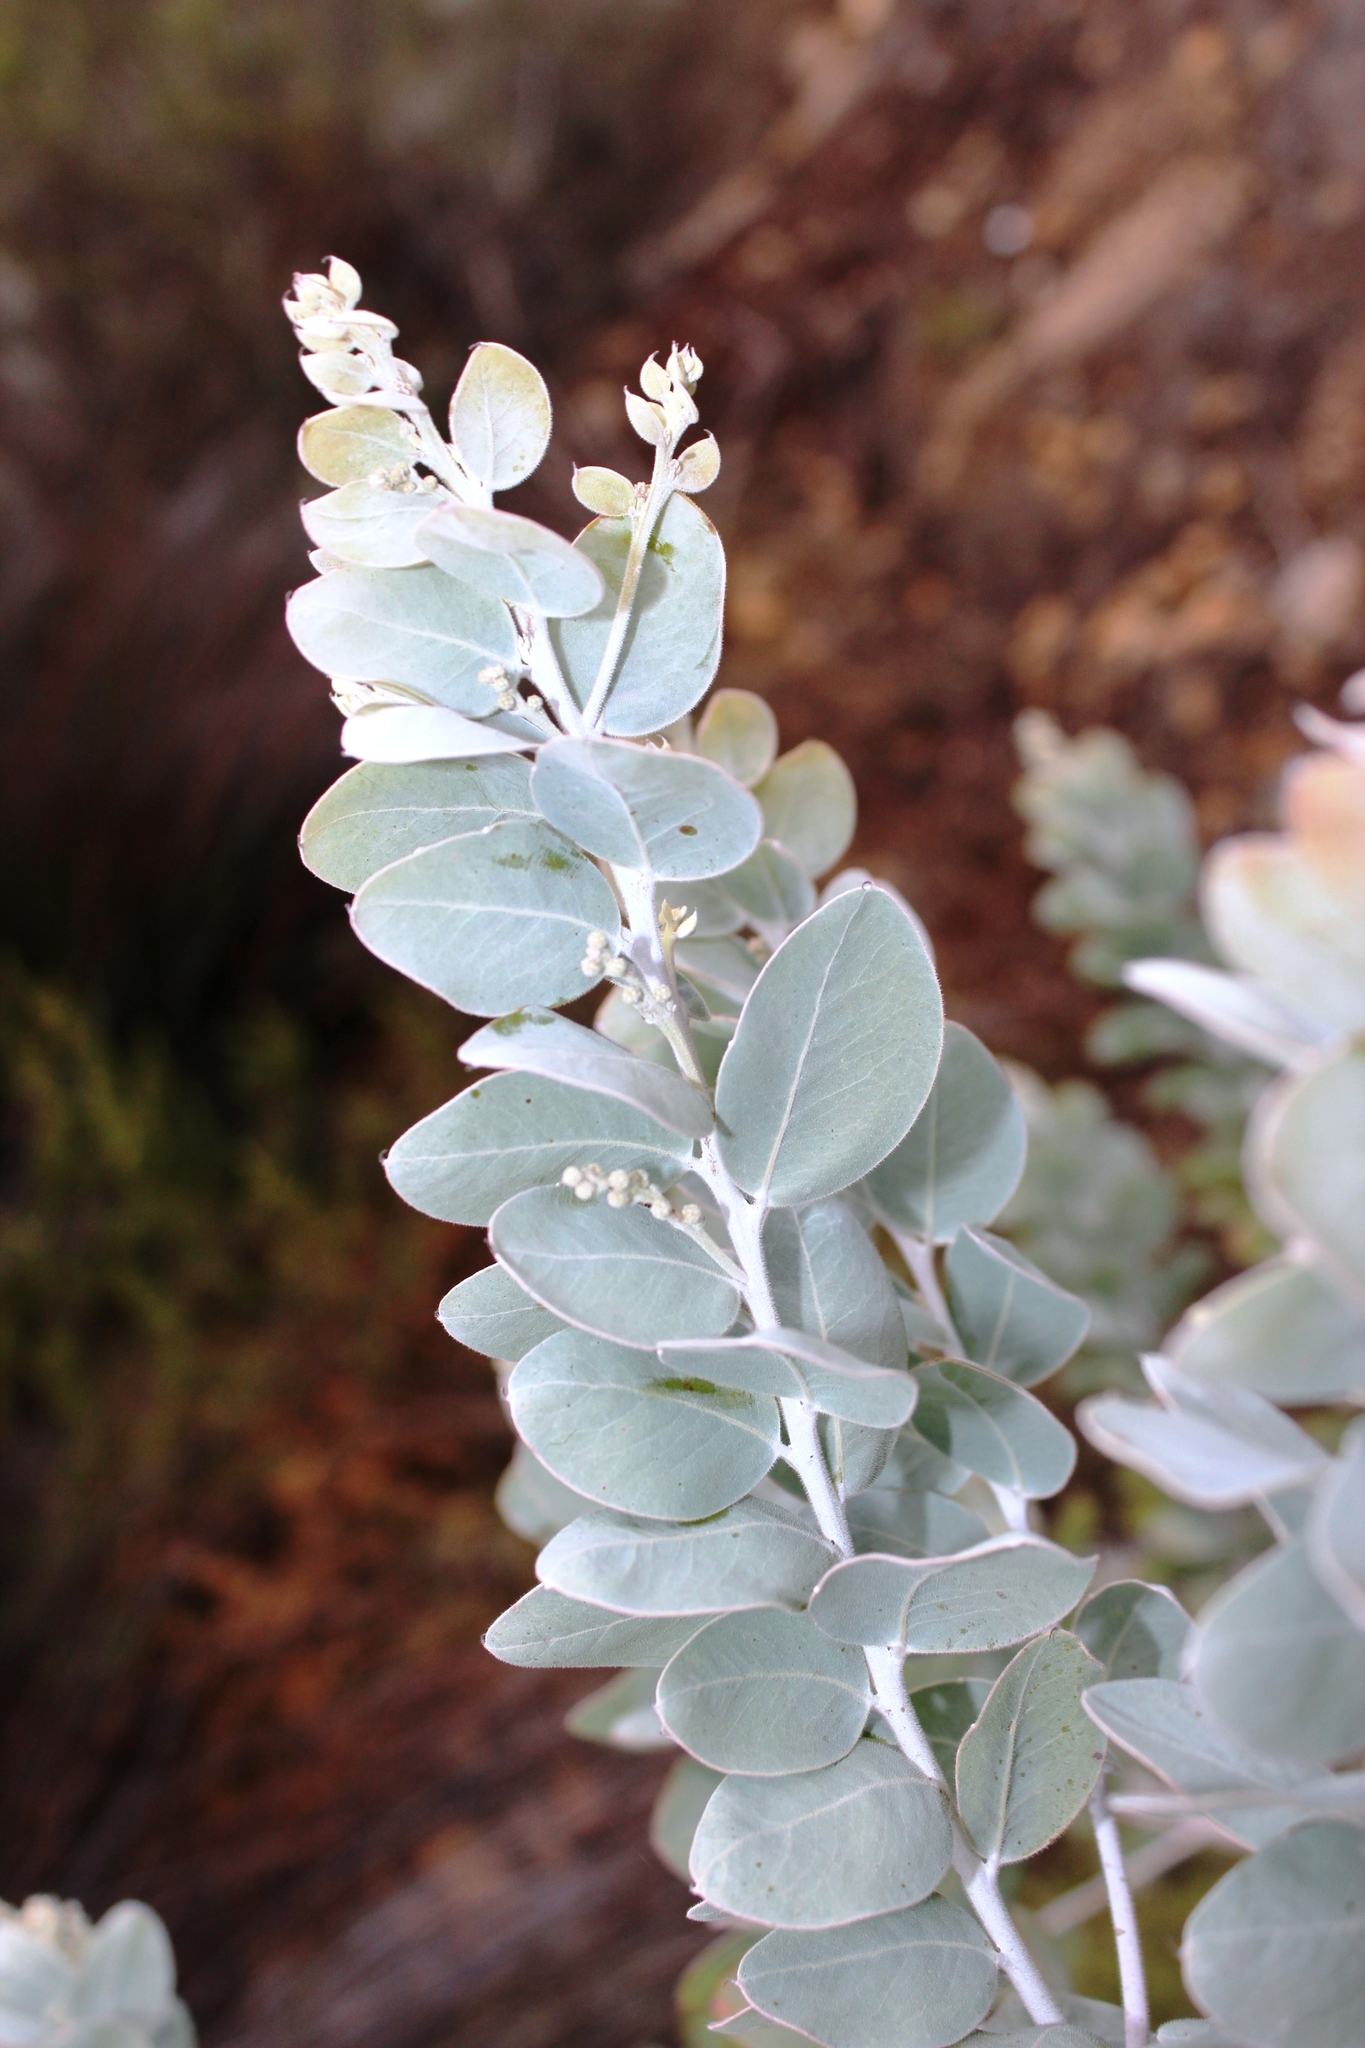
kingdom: Plantae
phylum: Tracheophyta
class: Magnoliopsida
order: Fabales
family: Fabaceae
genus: Acacia
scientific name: Acacia podalyriifolia
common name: Pearl wattle
